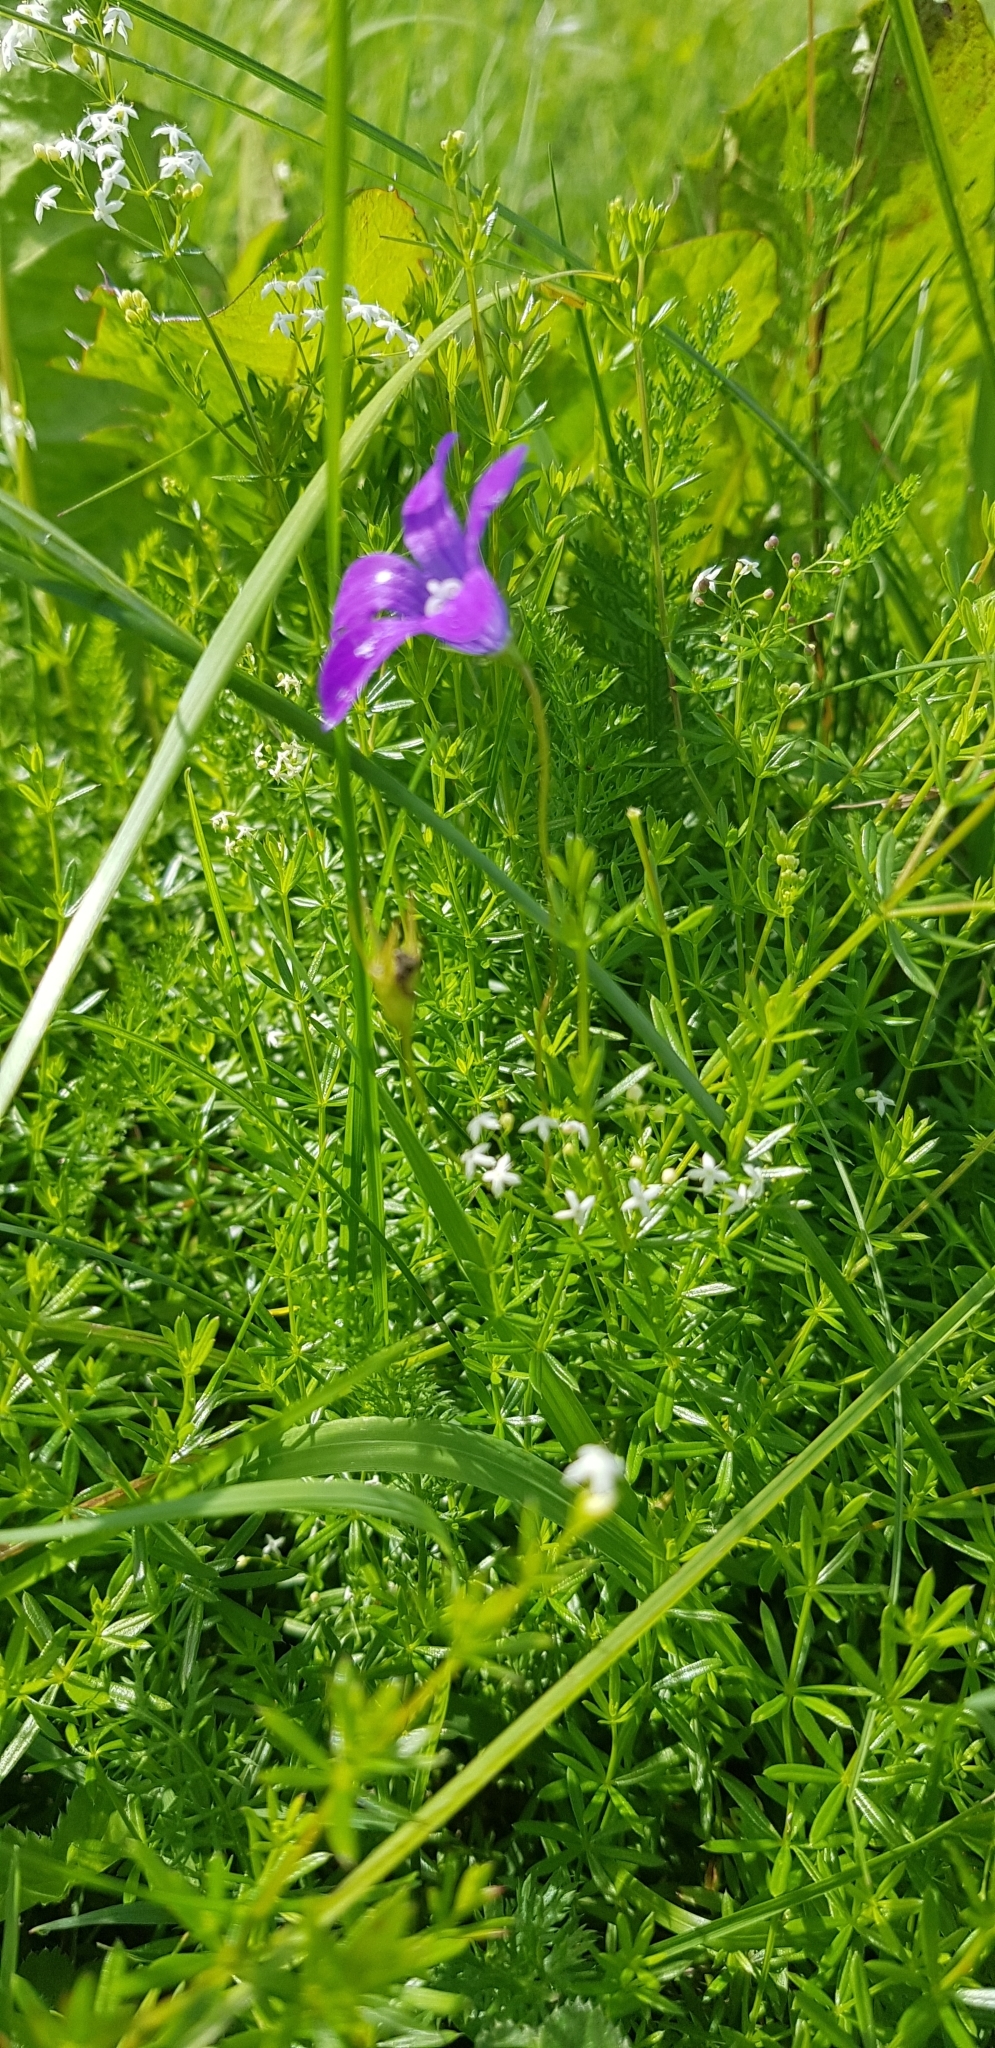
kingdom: Plantae
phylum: Tracheophyta
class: Magnoliopsida
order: Asterales
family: Campanulaceae
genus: Campanula
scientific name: Campanula patula
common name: Spreading bellflower
